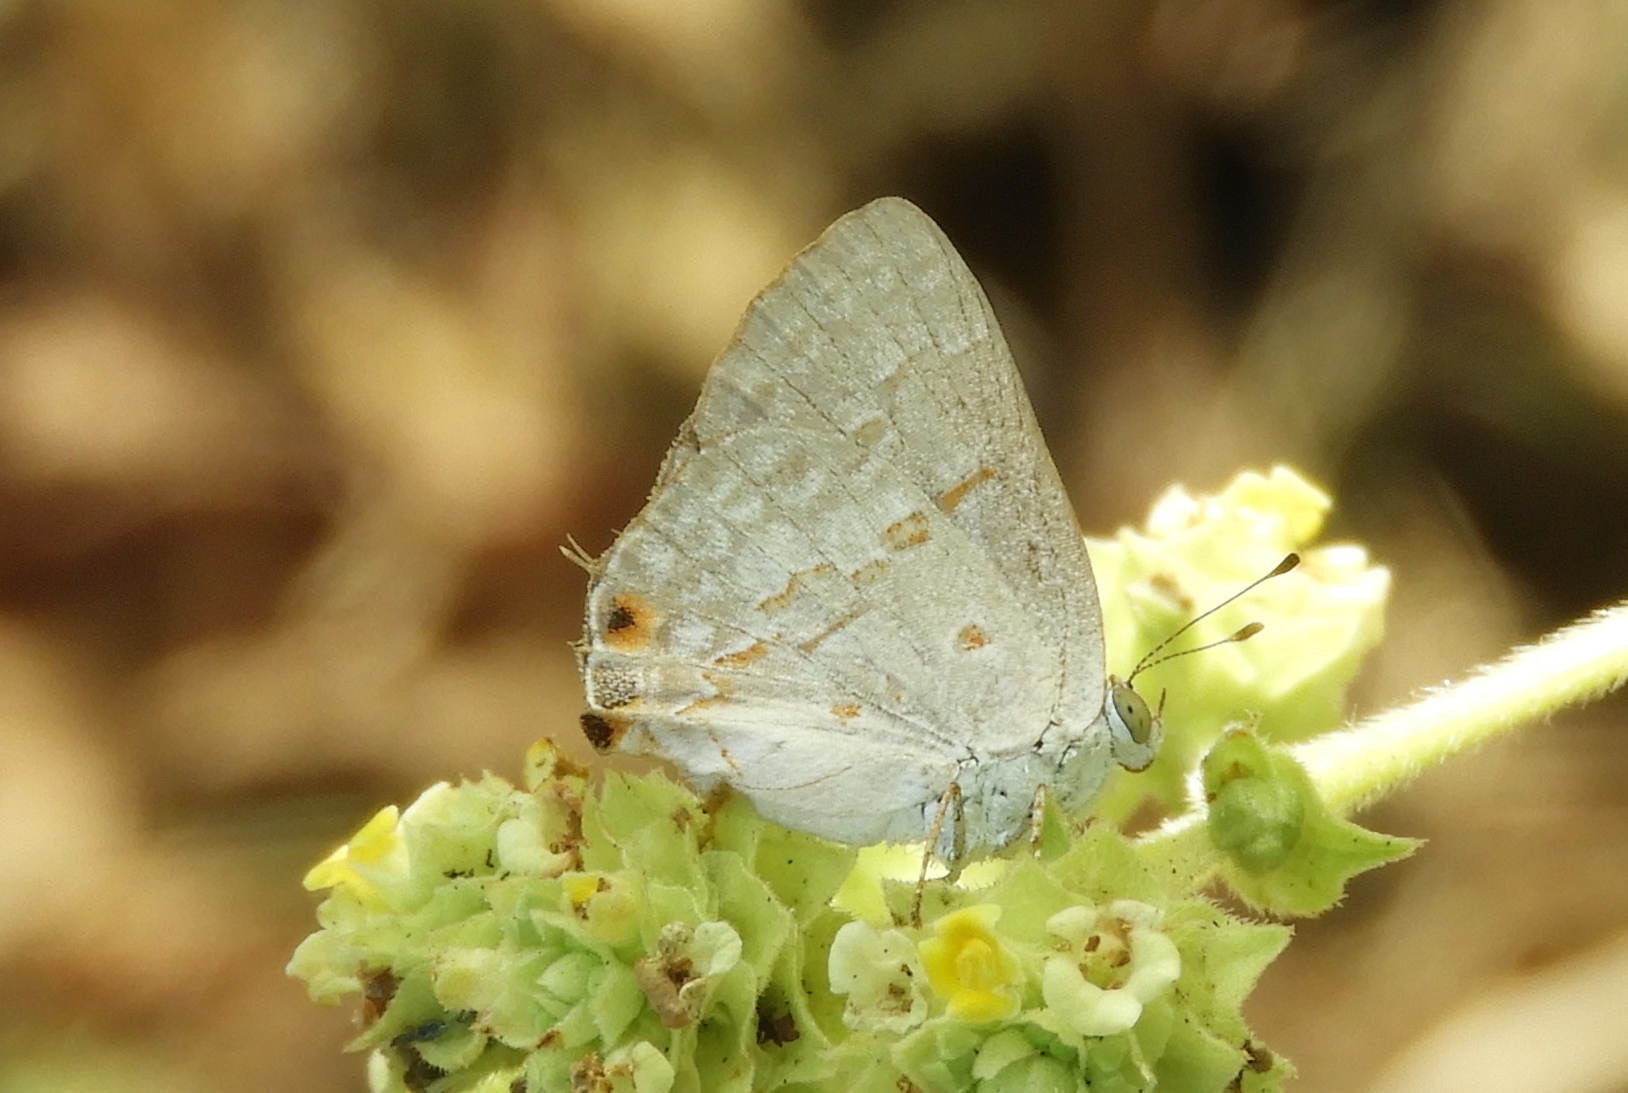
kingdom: Animalia
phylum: Arthropoda
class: Insecta
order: Lepidoptera
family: Lycaenidae
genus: Ministrymon
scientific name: Ministrymon
